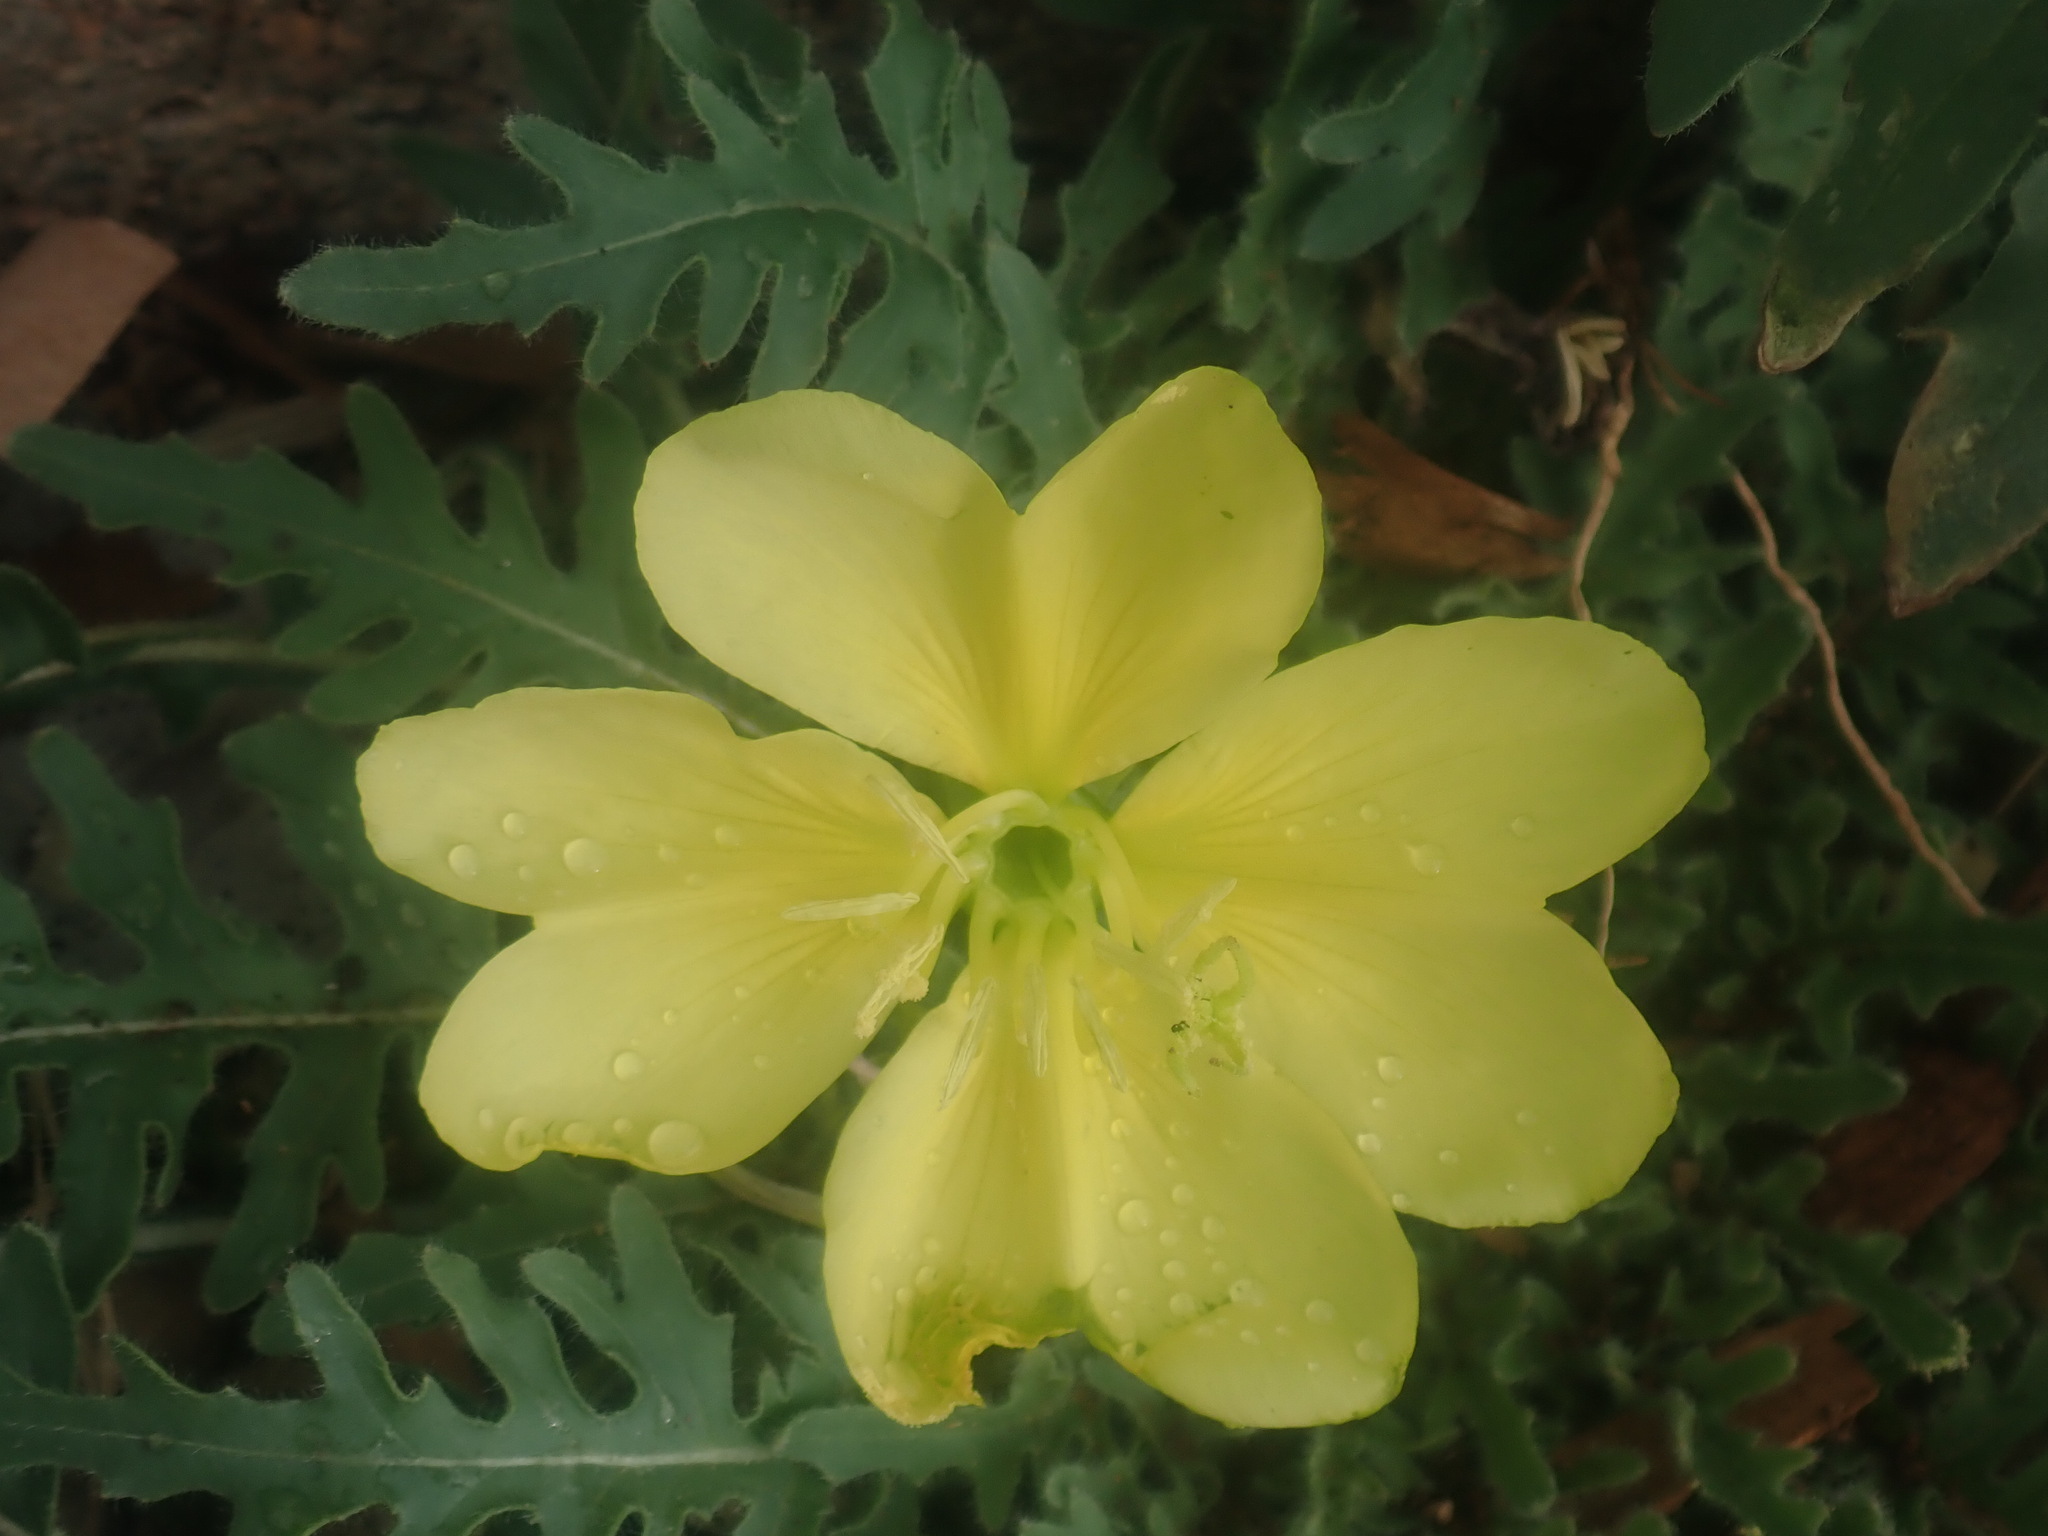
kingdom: Plantae
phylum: Tracheophyta
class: Magnoliopsida
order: Myrtales
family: Onagraceae
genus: Oenothera
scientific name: Oenothera primiveris
